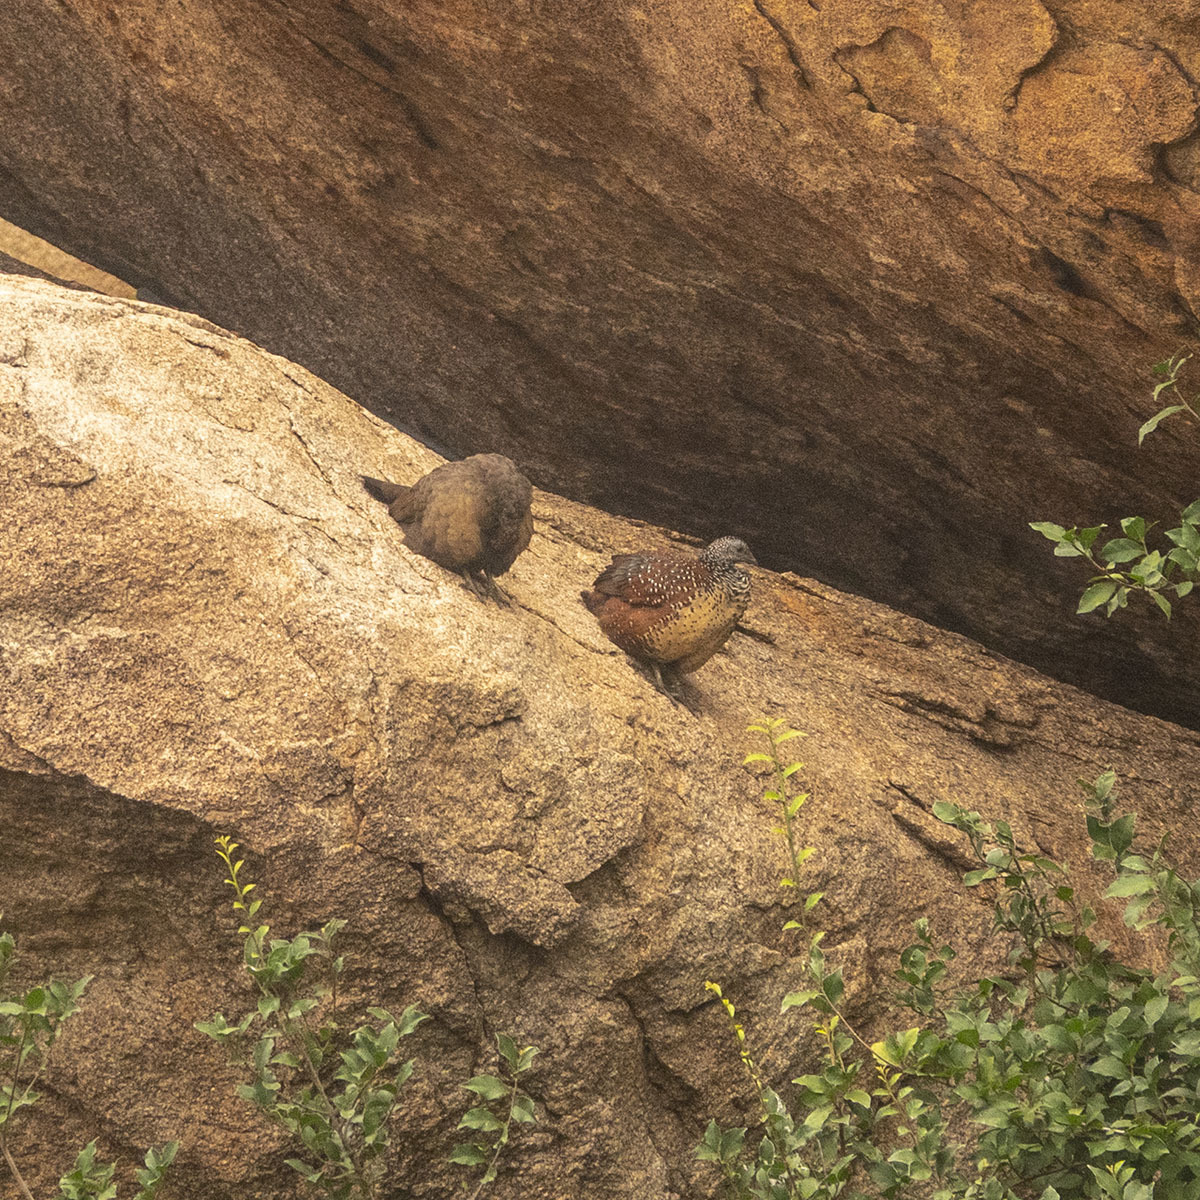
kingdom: Animalia
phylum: Chordata
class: Aves
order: Galliformes
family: Phasianidae
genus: Galloperdix
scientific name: Galloperdix lunulata
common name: Painted spurfowl
